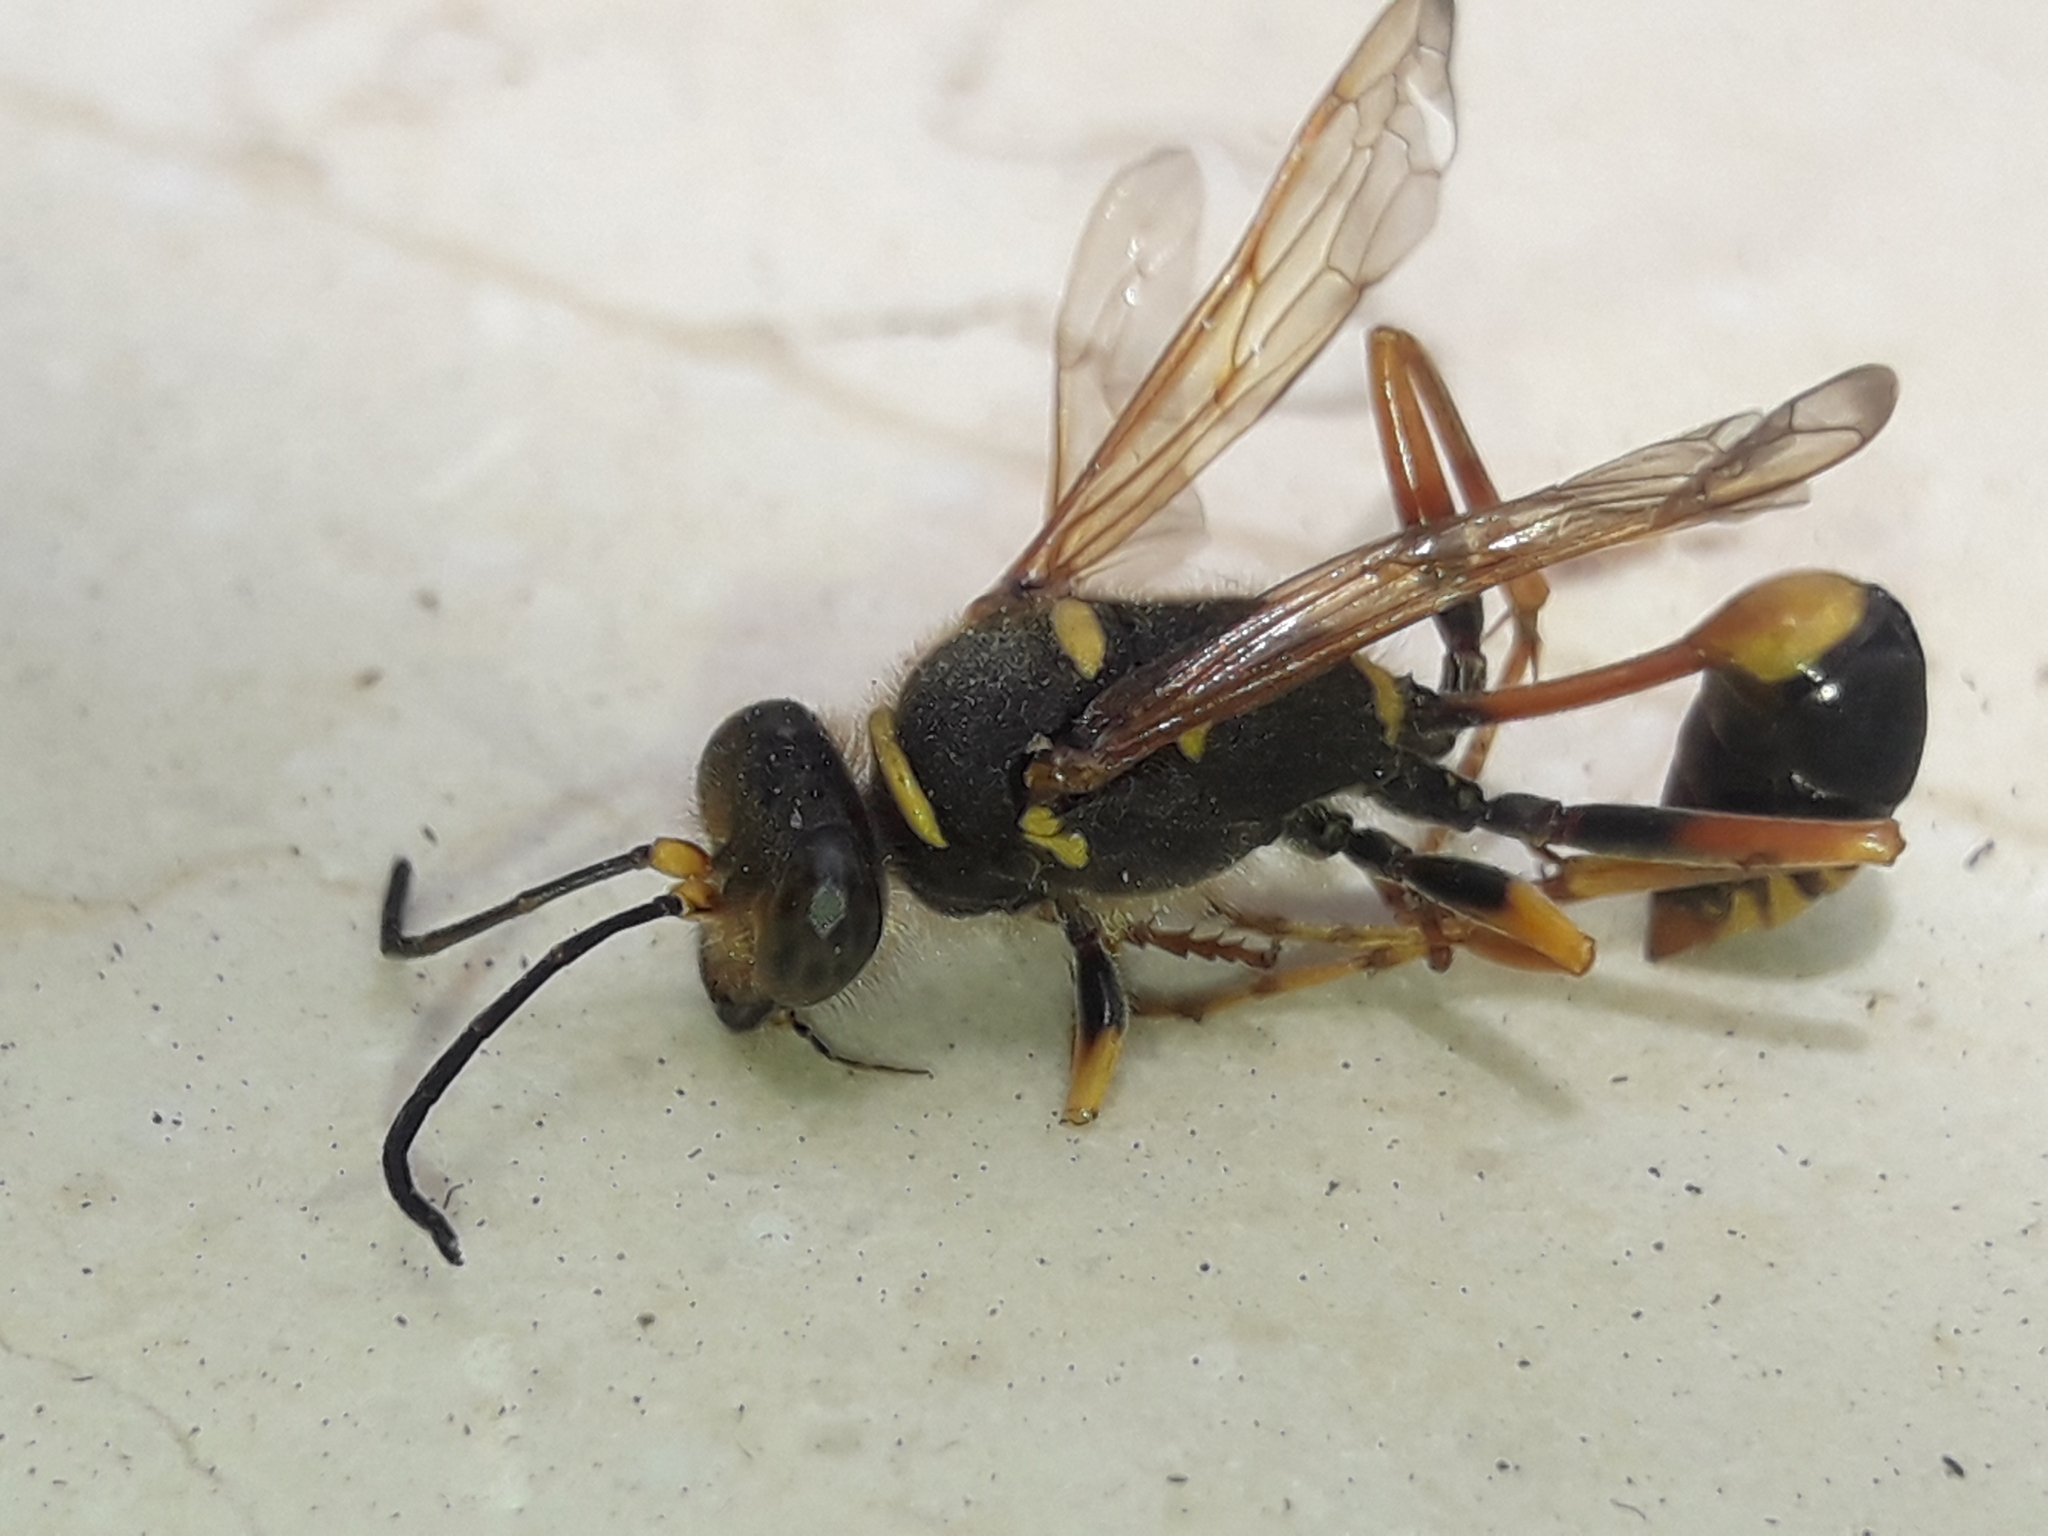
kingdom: Animalia
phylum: Arthropoda
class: Insecta
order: Hymenoptera
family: Sphecidae
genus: Sceliphron
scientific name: Sceliphron formosum
